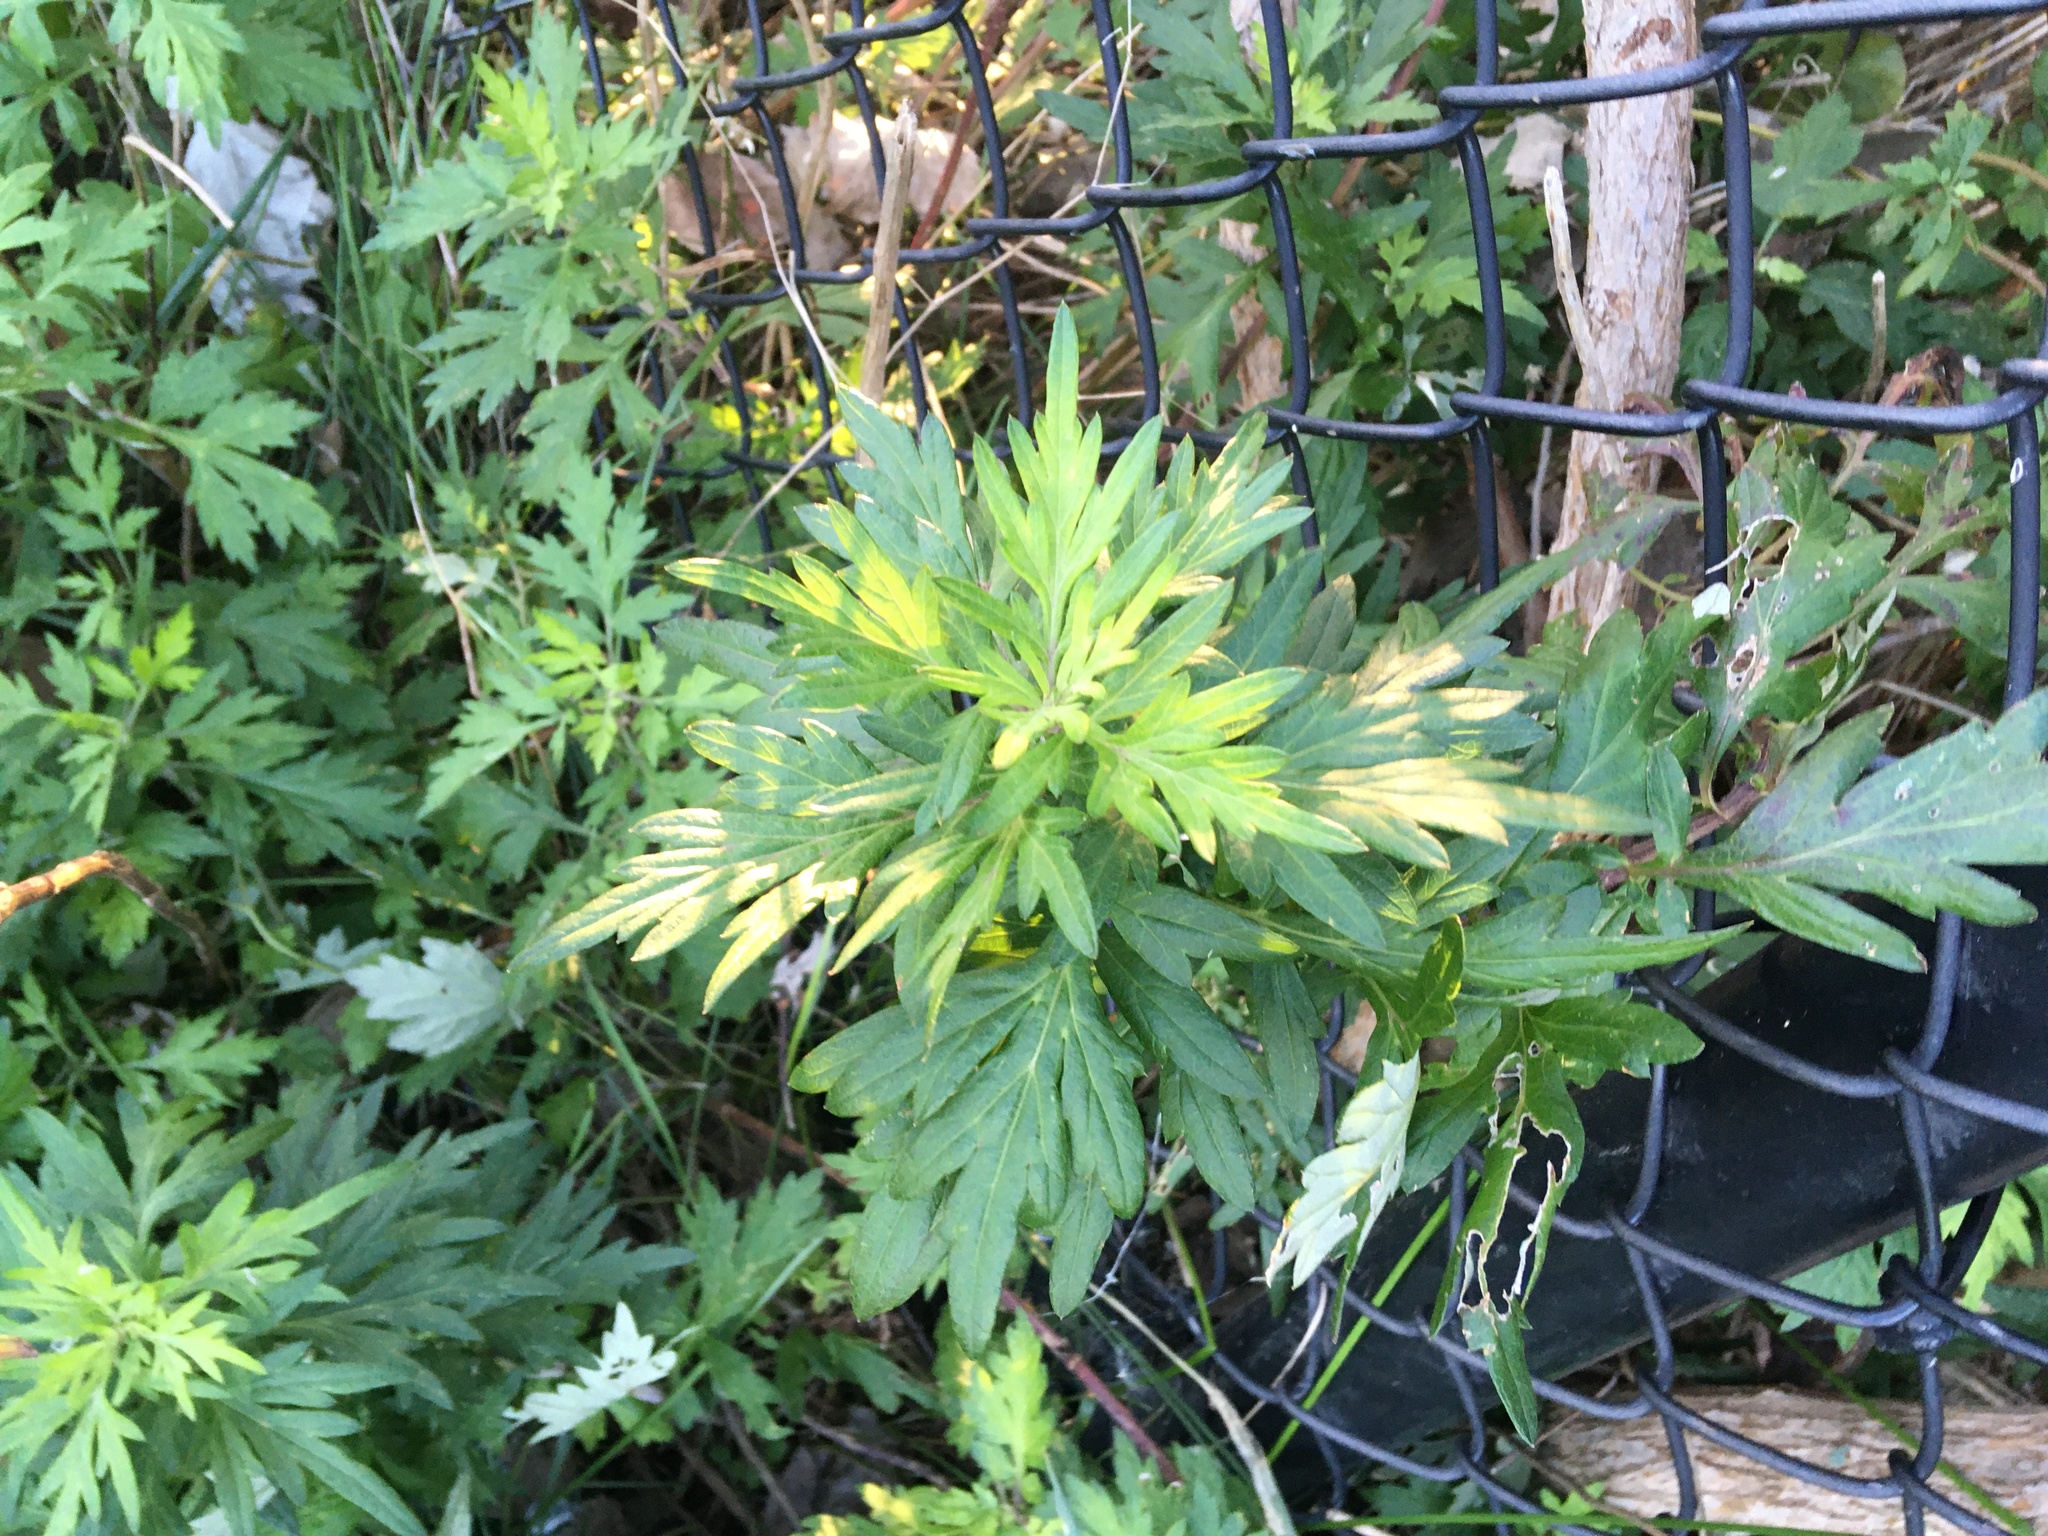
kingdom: Plantae
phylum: Tracheophyta
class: Magnoliopsida
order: Asterales
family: Asteraceae
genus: Artemisia
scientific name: Artemisia vulgaris
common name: Mugwort
